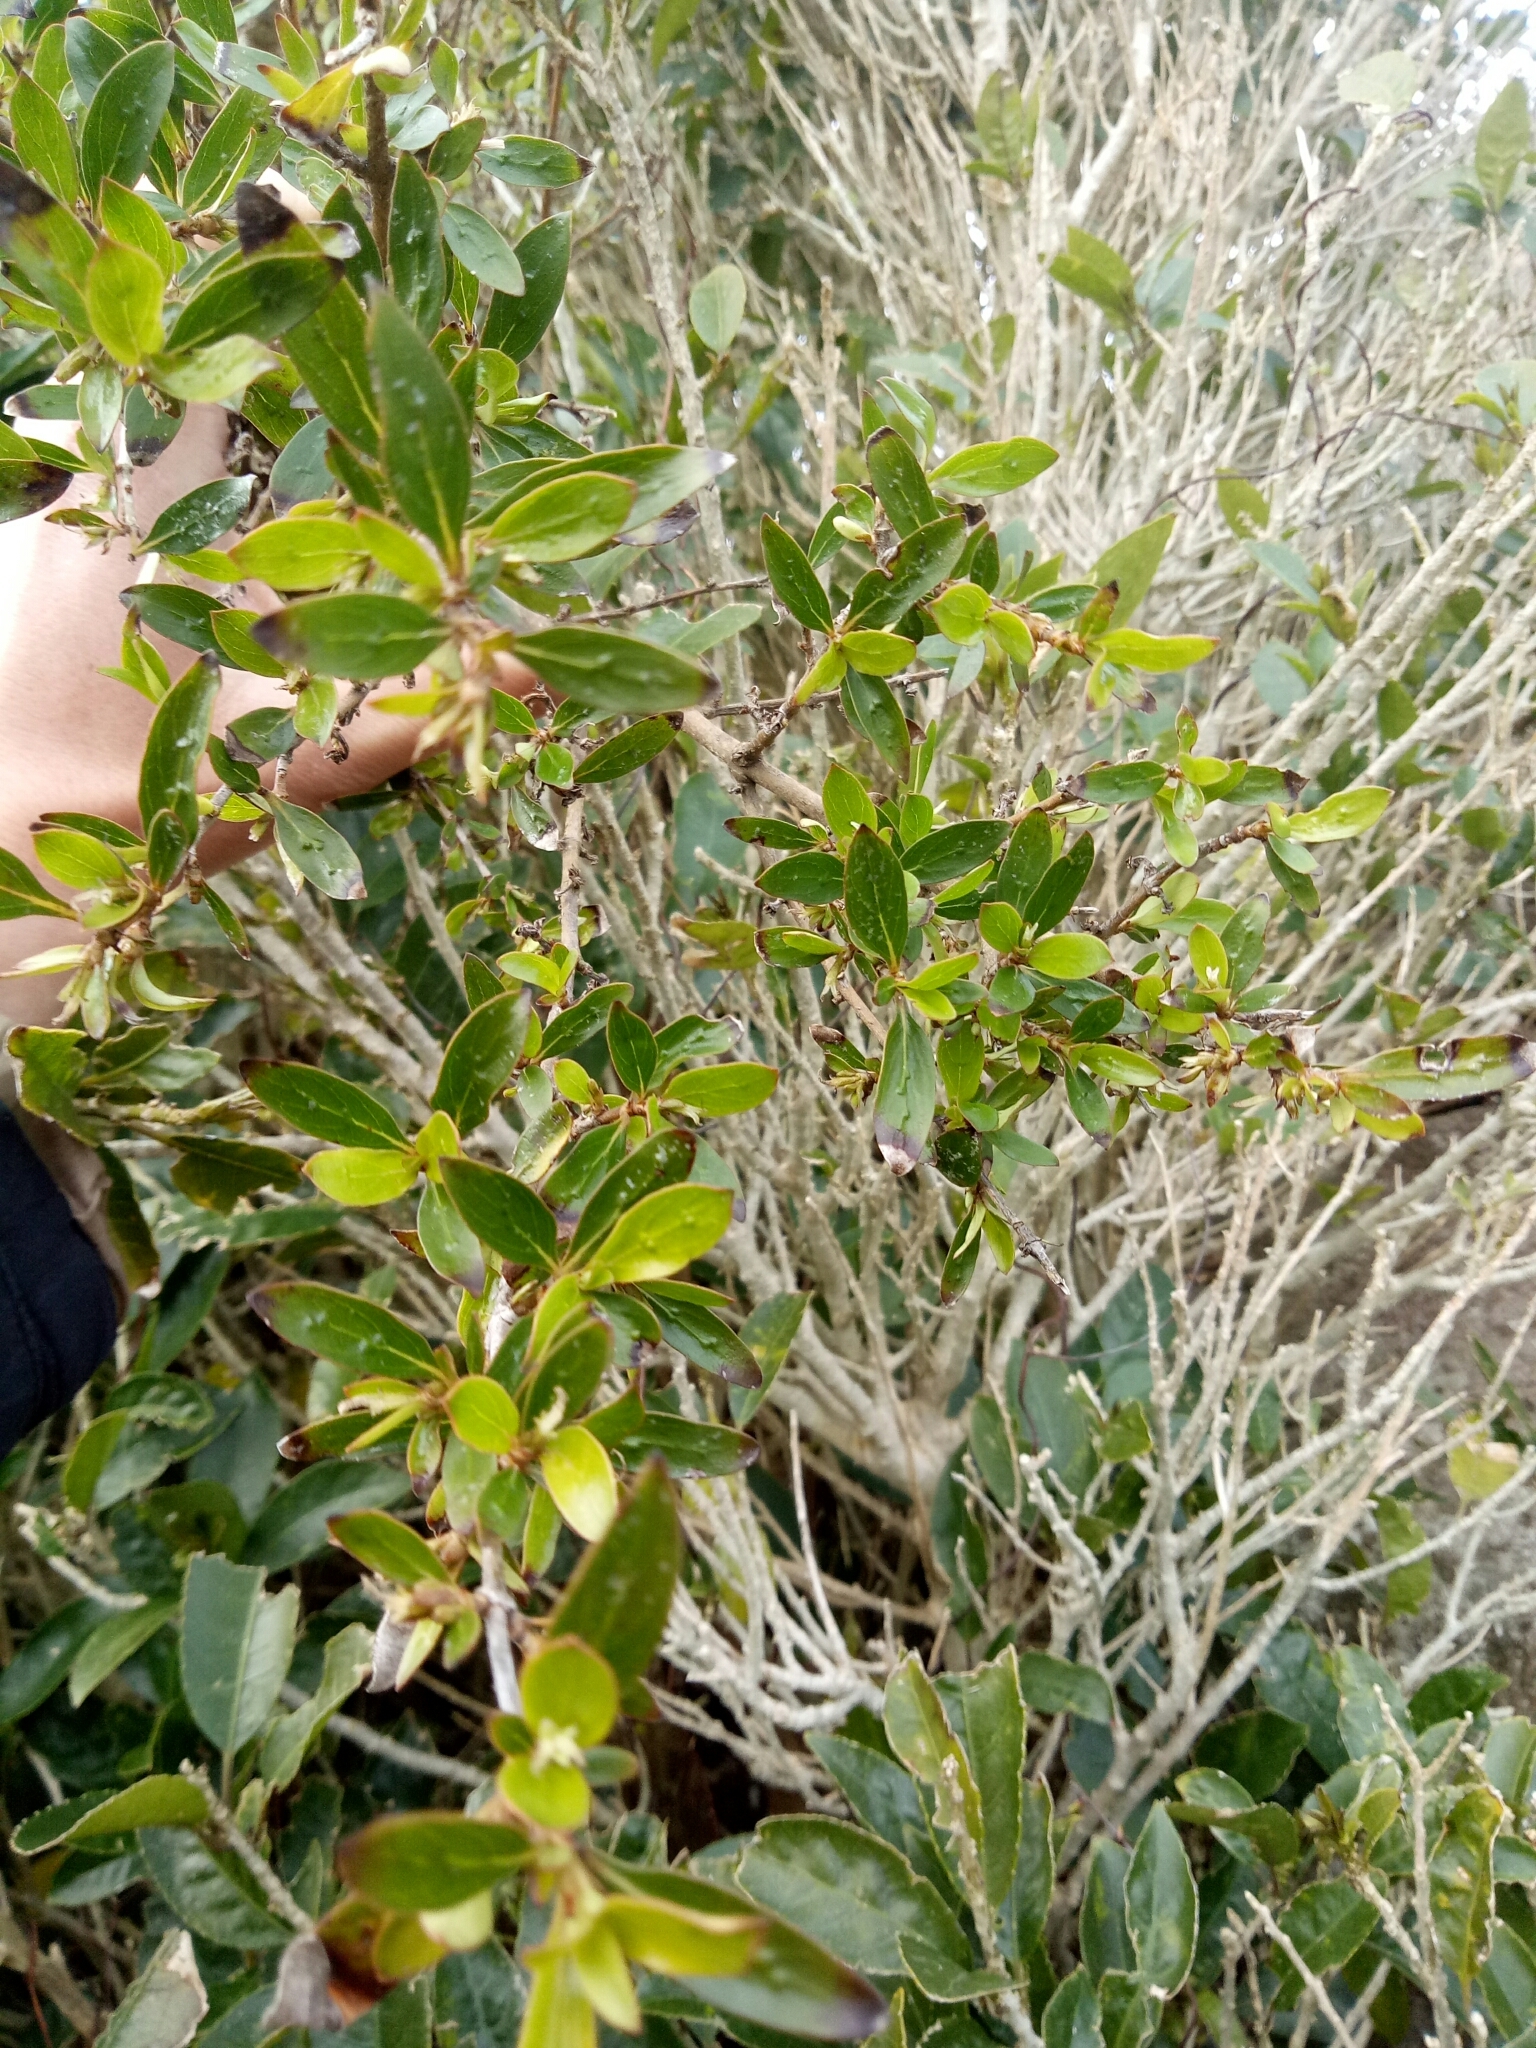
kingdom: Plantae
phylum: Tracheophyta
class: Magnoliopsida
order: Gentianales
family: Rubiaceae
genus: Coprosma
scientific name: Coprosma cunninghamii
